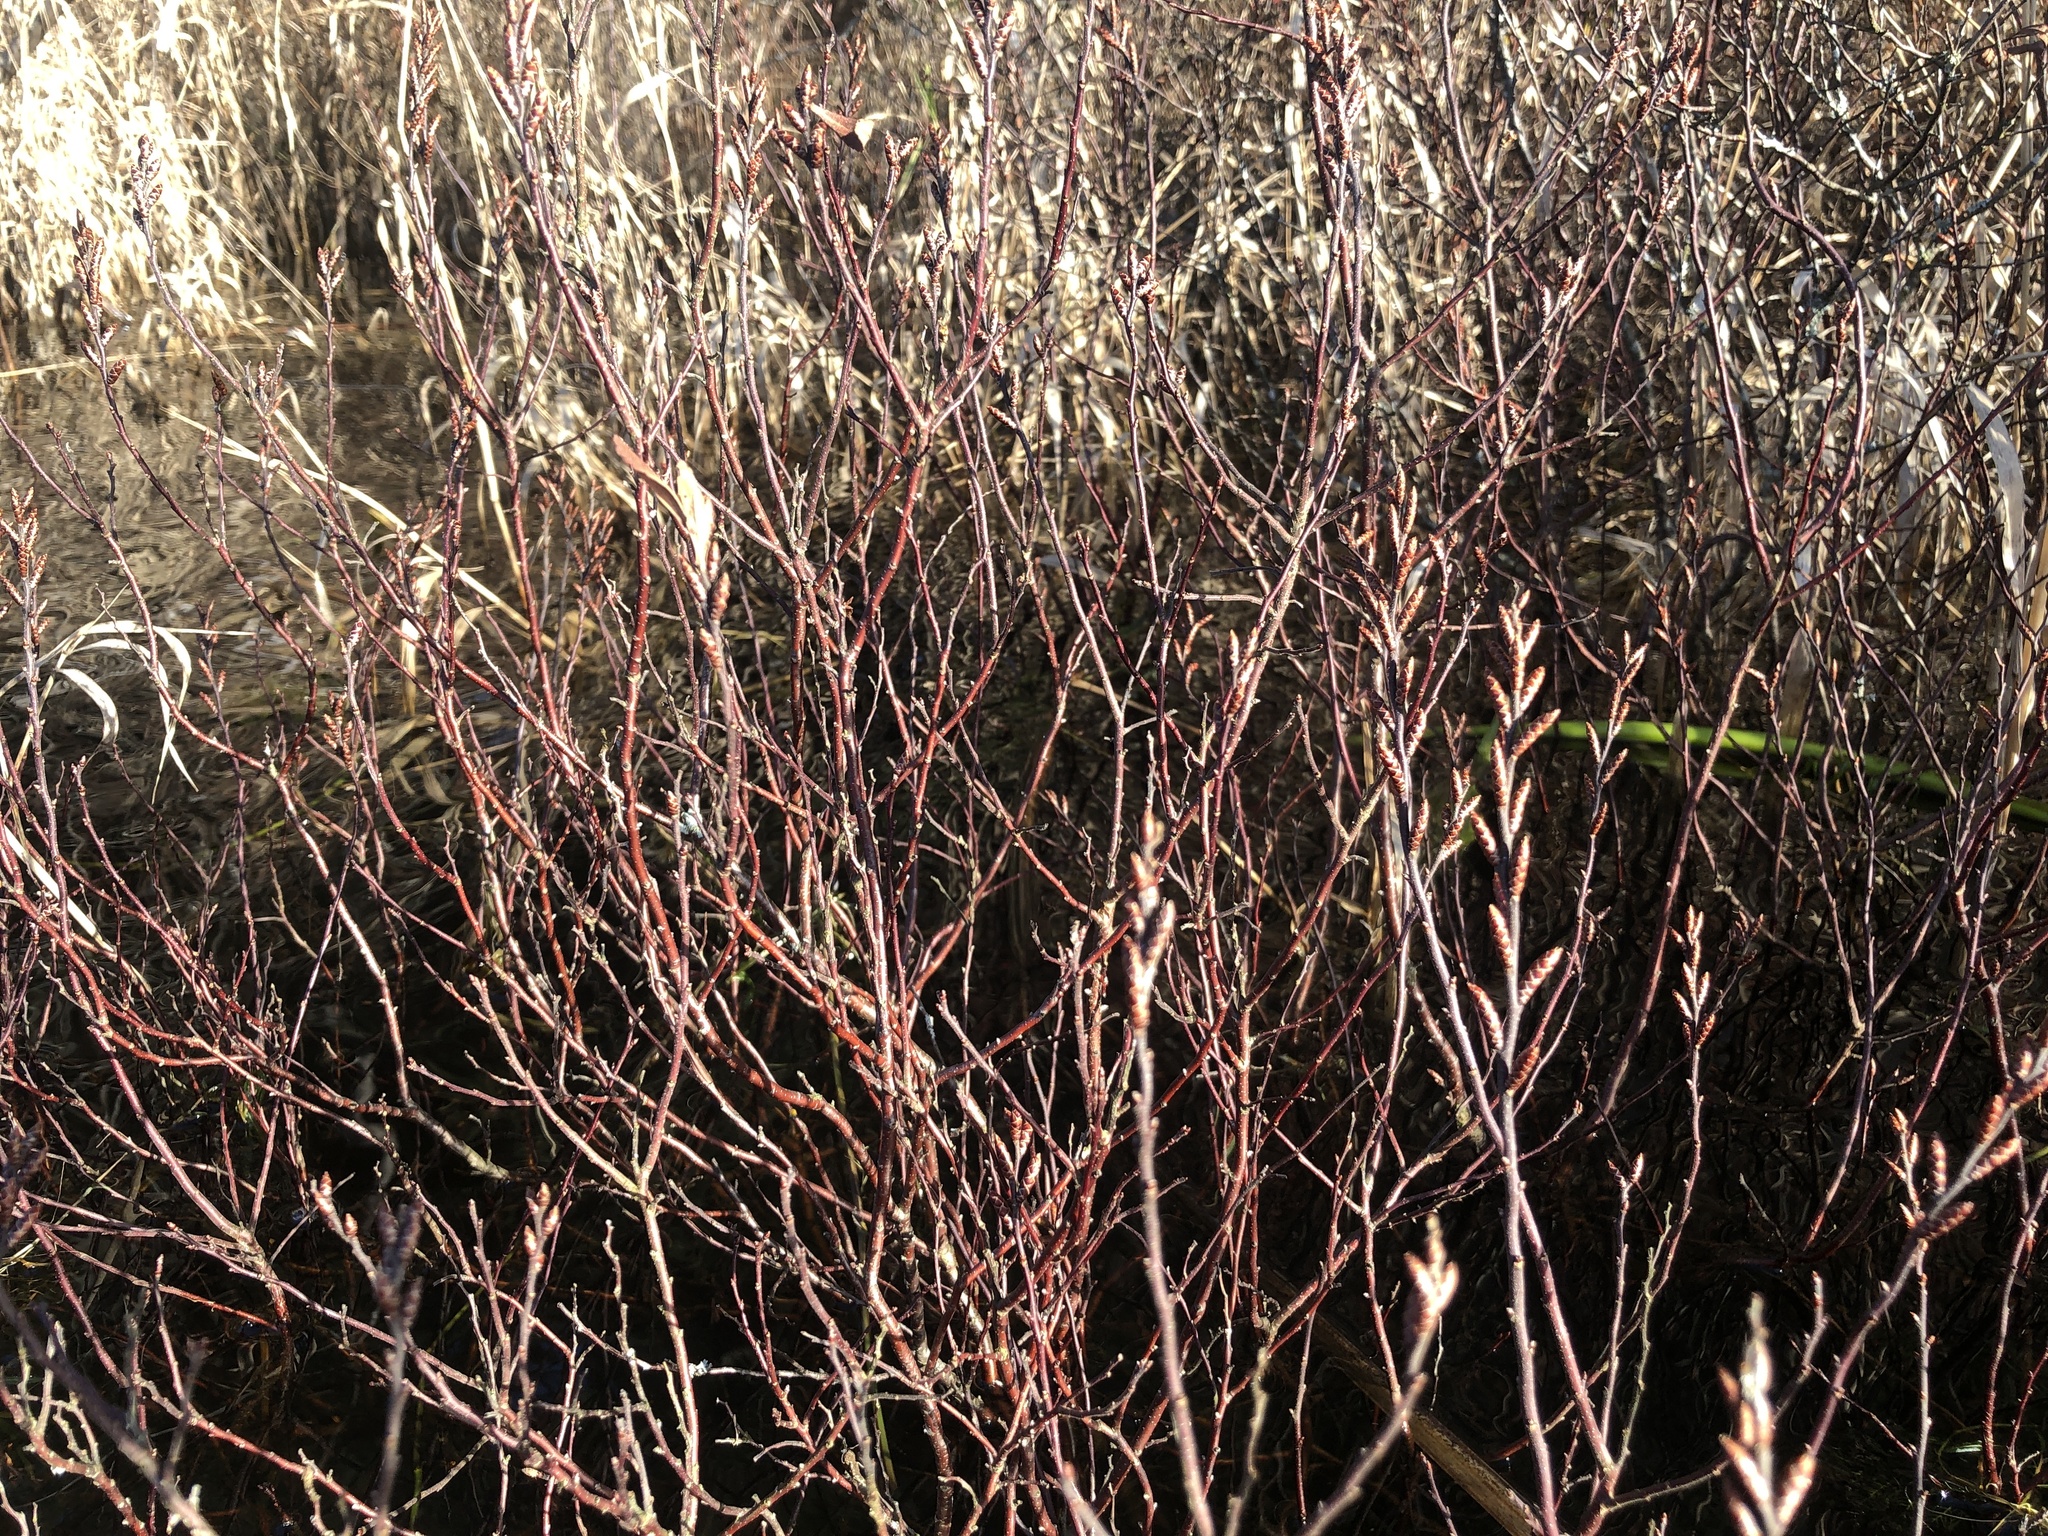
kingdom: Plantae
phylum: Tracheophyta
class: Magnoliopsida
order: Fagales
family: Myricaceae
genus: Myrica
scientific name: Myrica gale
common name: Sweet gale
